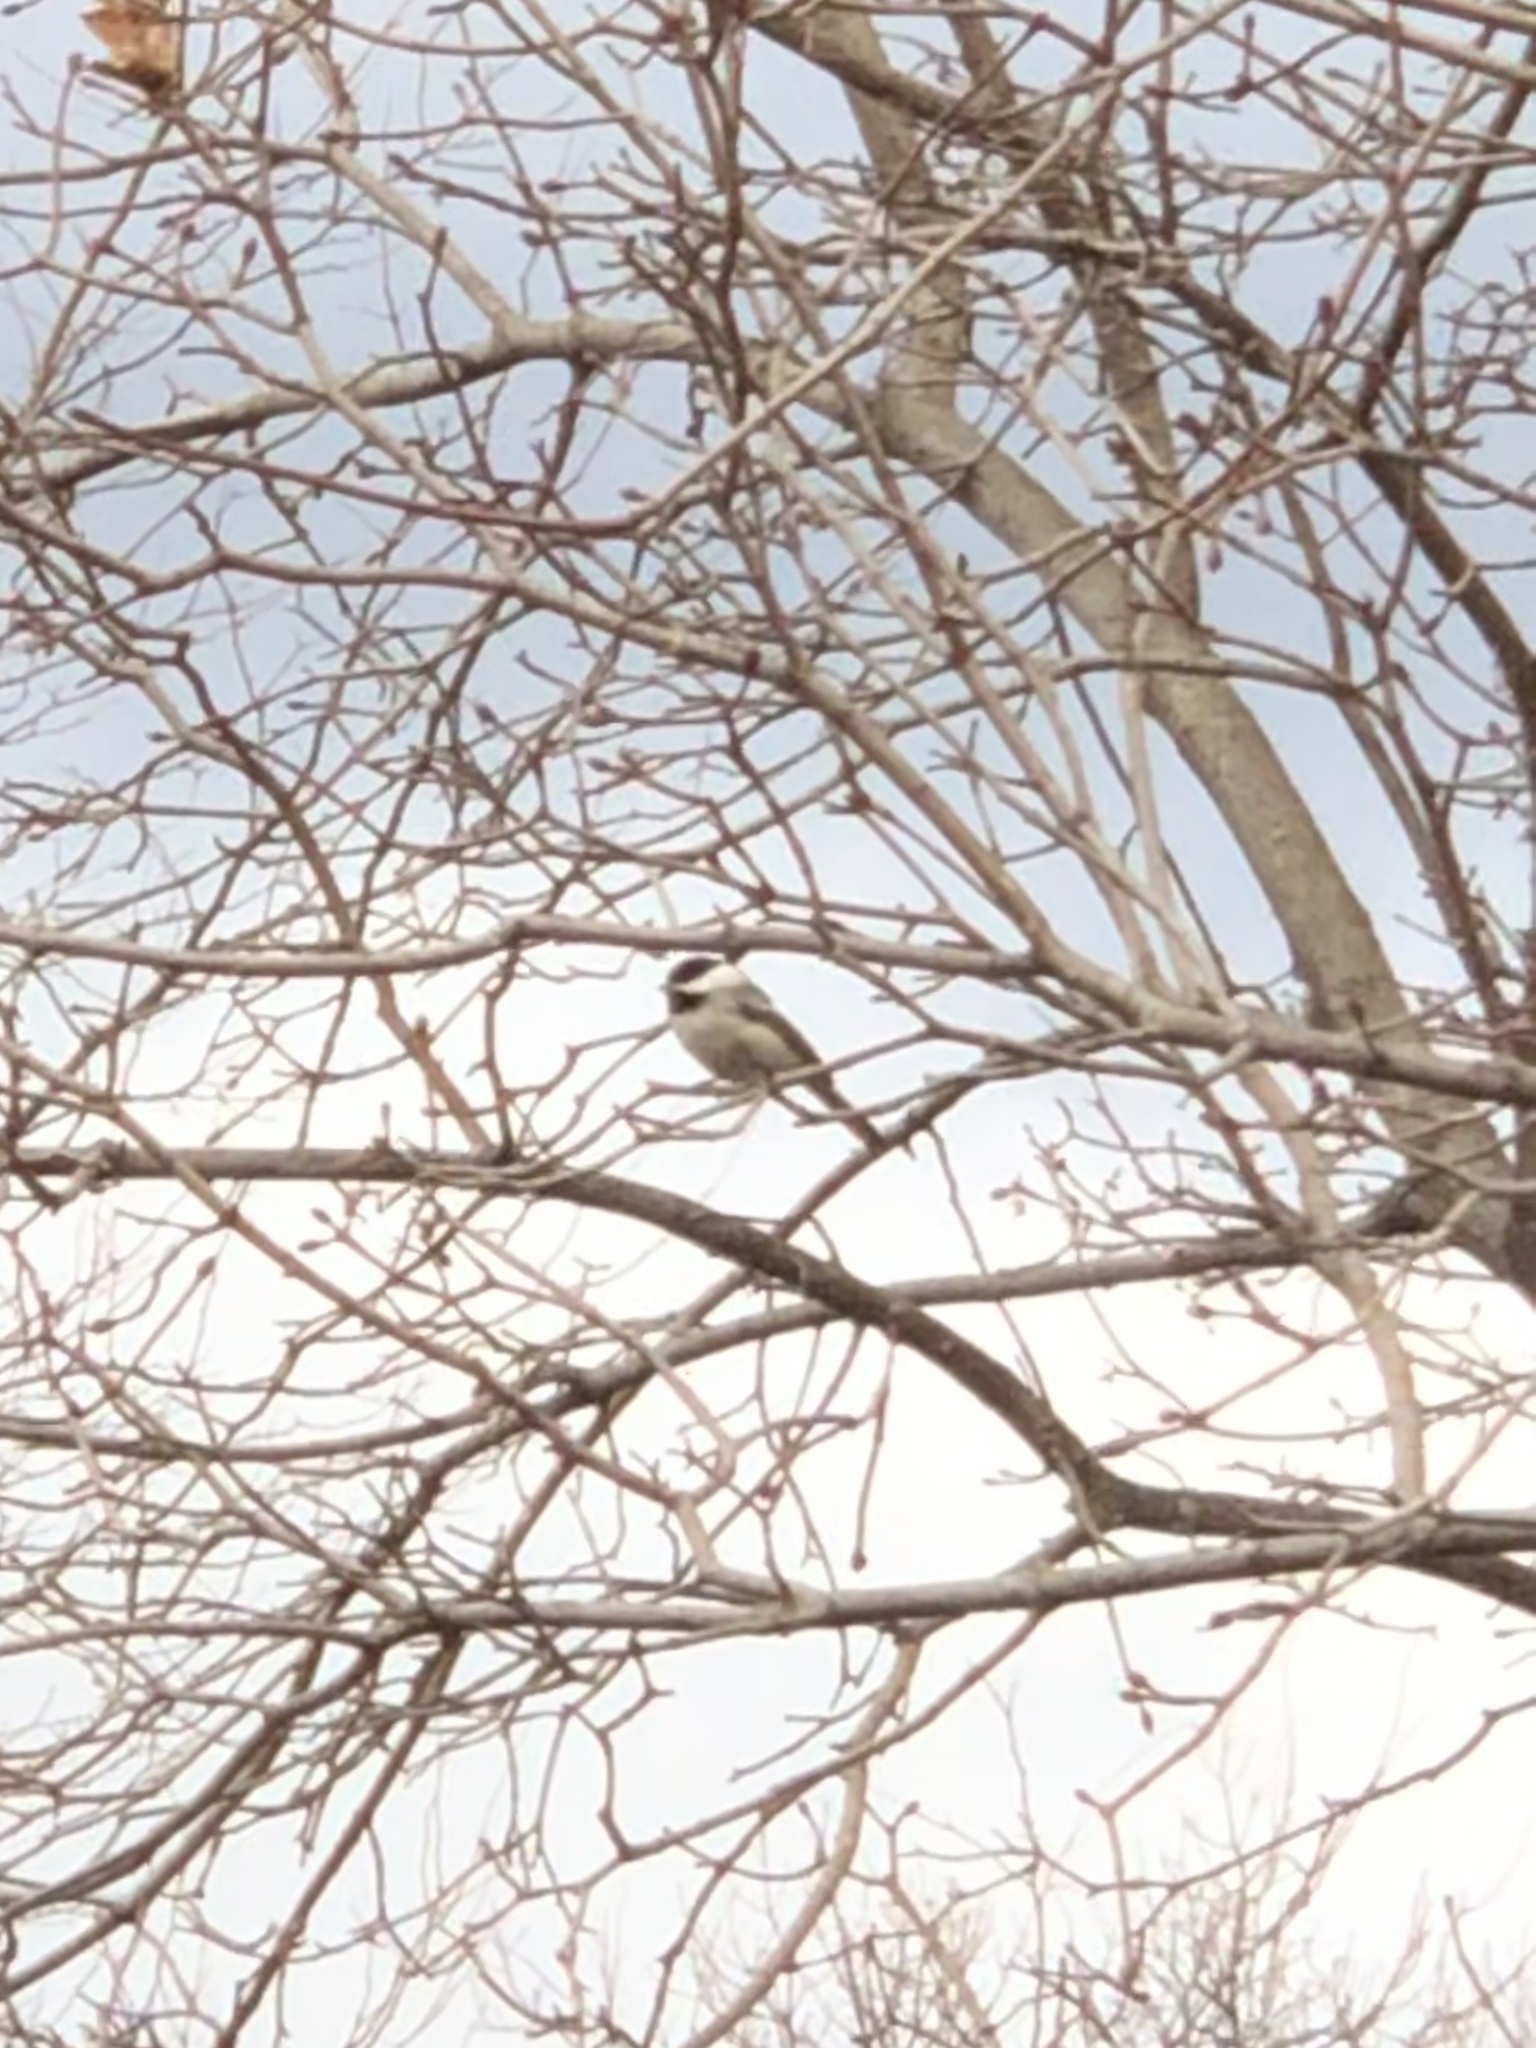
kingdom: Animalia
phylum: Chordata
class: Aves
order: Passeriformes
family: Paridae
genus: Poecile
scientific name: Poecile atricapillus
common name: Black-capped chickadee
